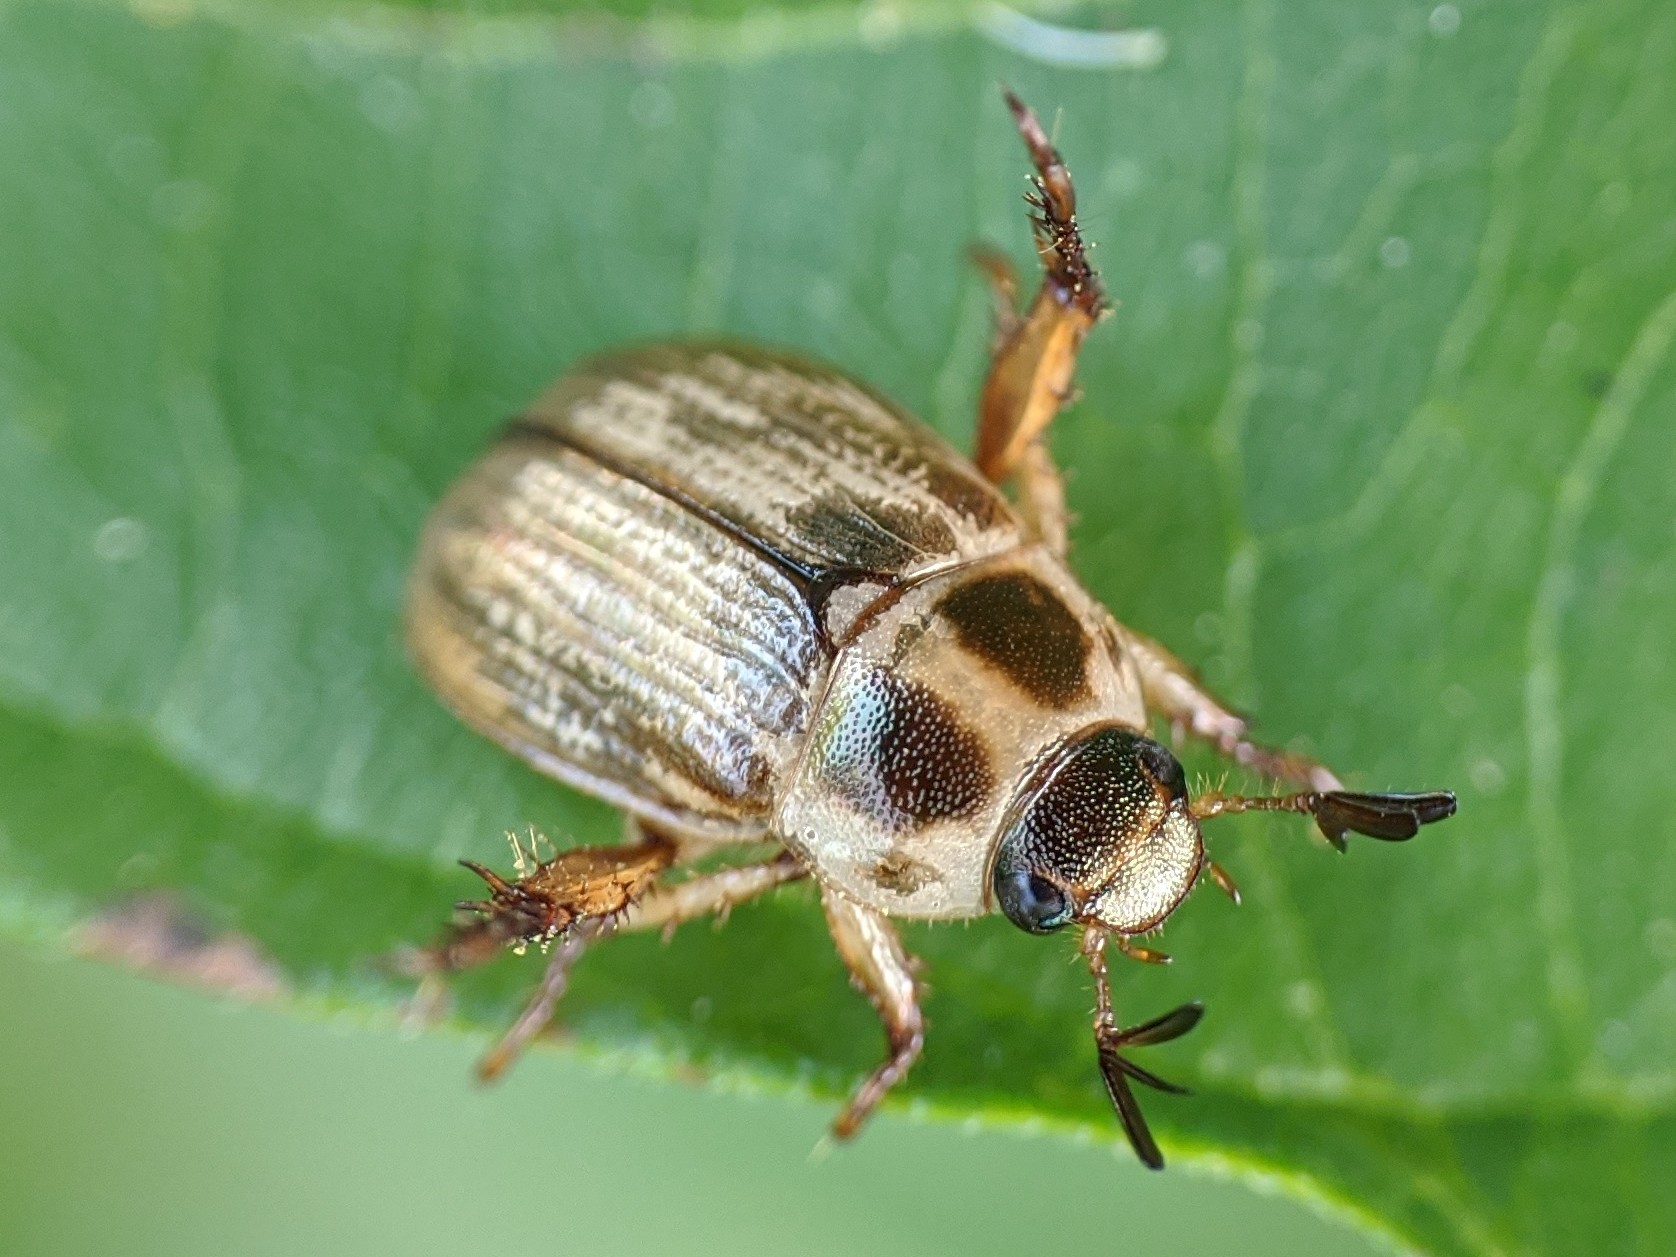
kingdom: Animalia
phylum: Arthropoda
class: Insecta
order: Coleoptera
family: Scarabaeidae
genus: Exomala
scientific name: Exomala orientalis
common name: Oriental beetle
